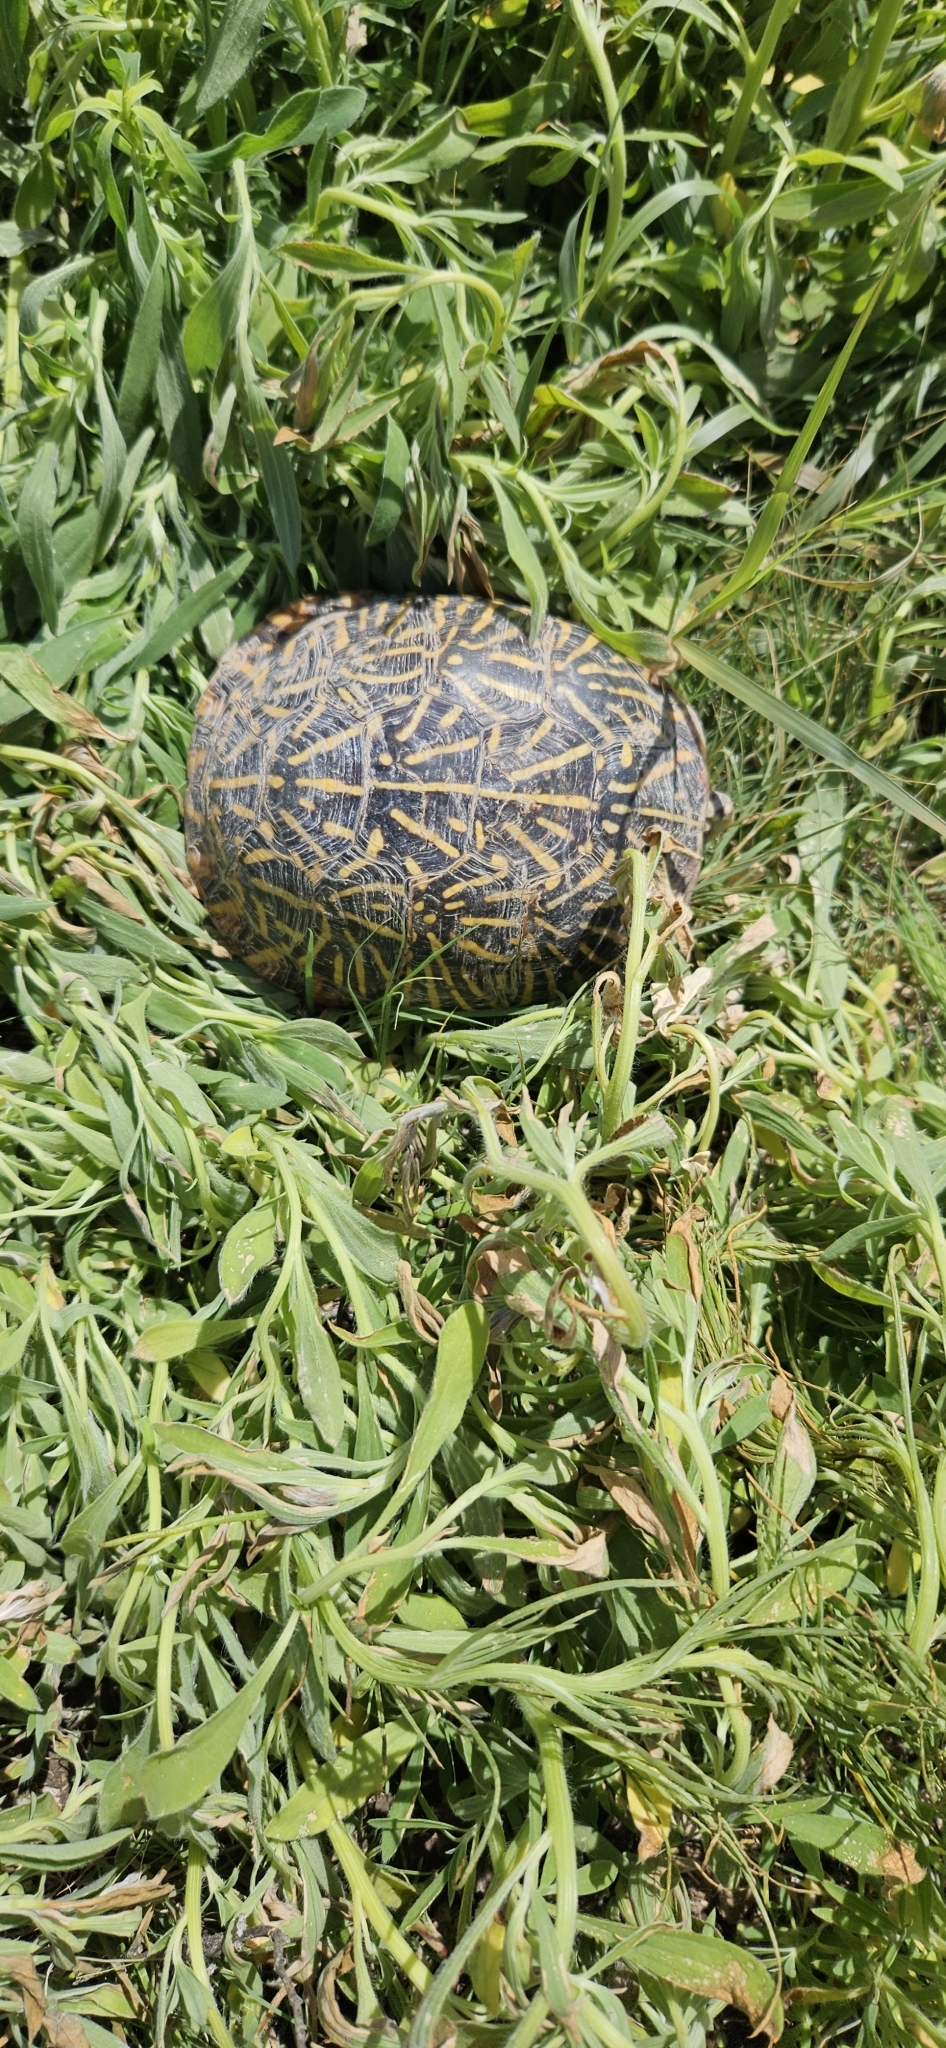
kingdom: Animalia
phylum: Chordata
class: Testudines
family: Emydidae
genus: Terrapene
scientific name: Terrapene ornata
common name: Western box turtle
